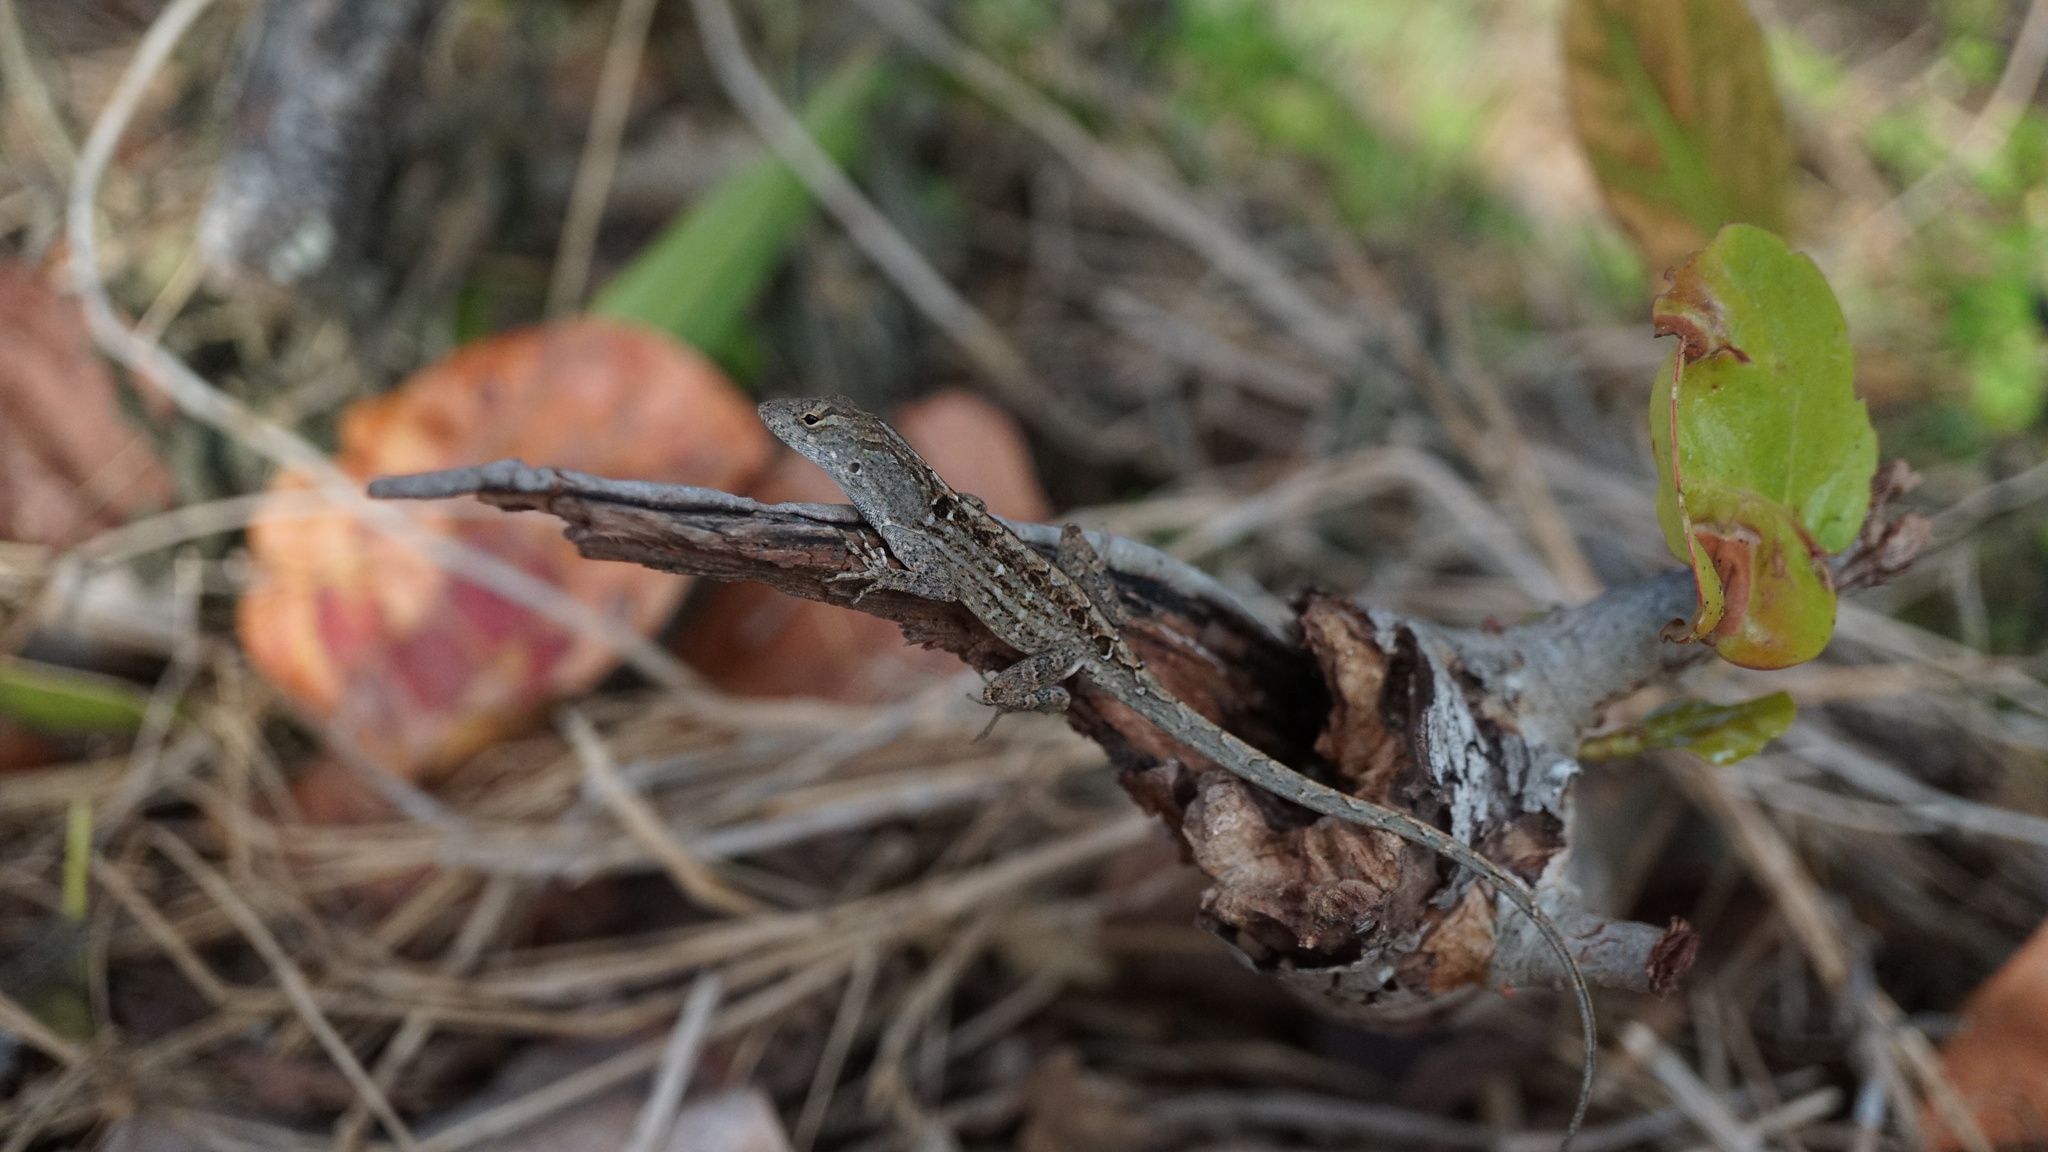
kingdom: Animalia
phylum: Chordata
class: Squamata
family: Dactyloidae
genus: Anolis
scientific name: Anolis sagrei
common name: Brown anole
